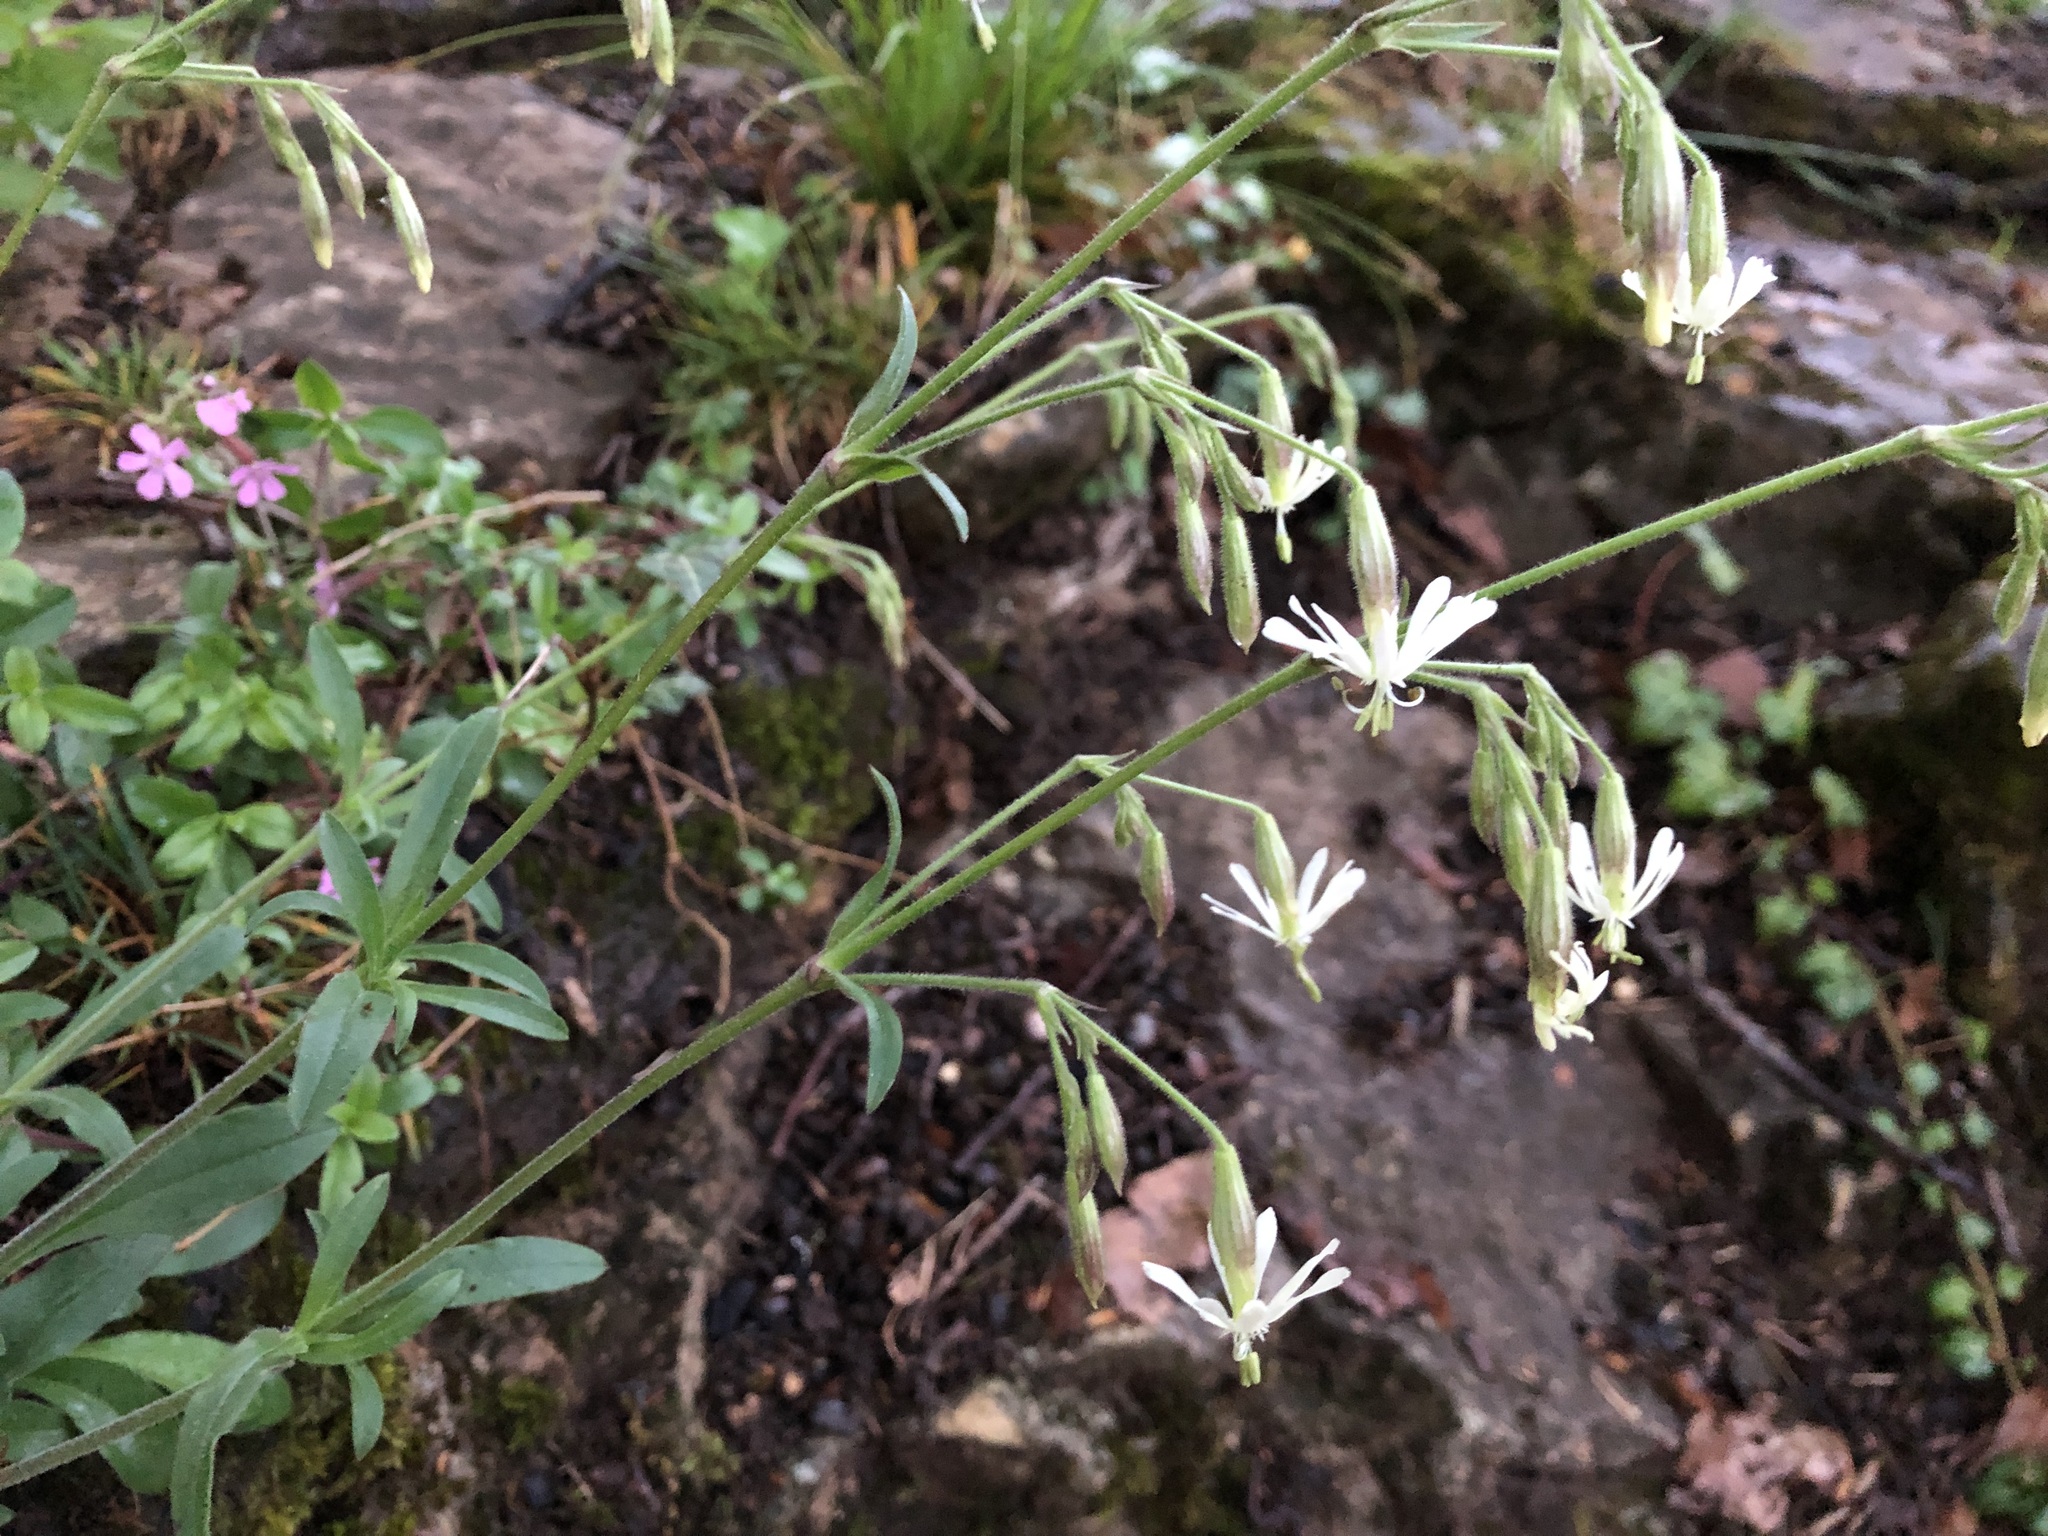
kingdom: Plantae
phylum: Tracheophyta
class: Magnoliopsida
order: Caryophyllales
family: Caryophyllaceae
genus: Silene
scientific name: Silene nutans
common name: Nottingham catchfly
